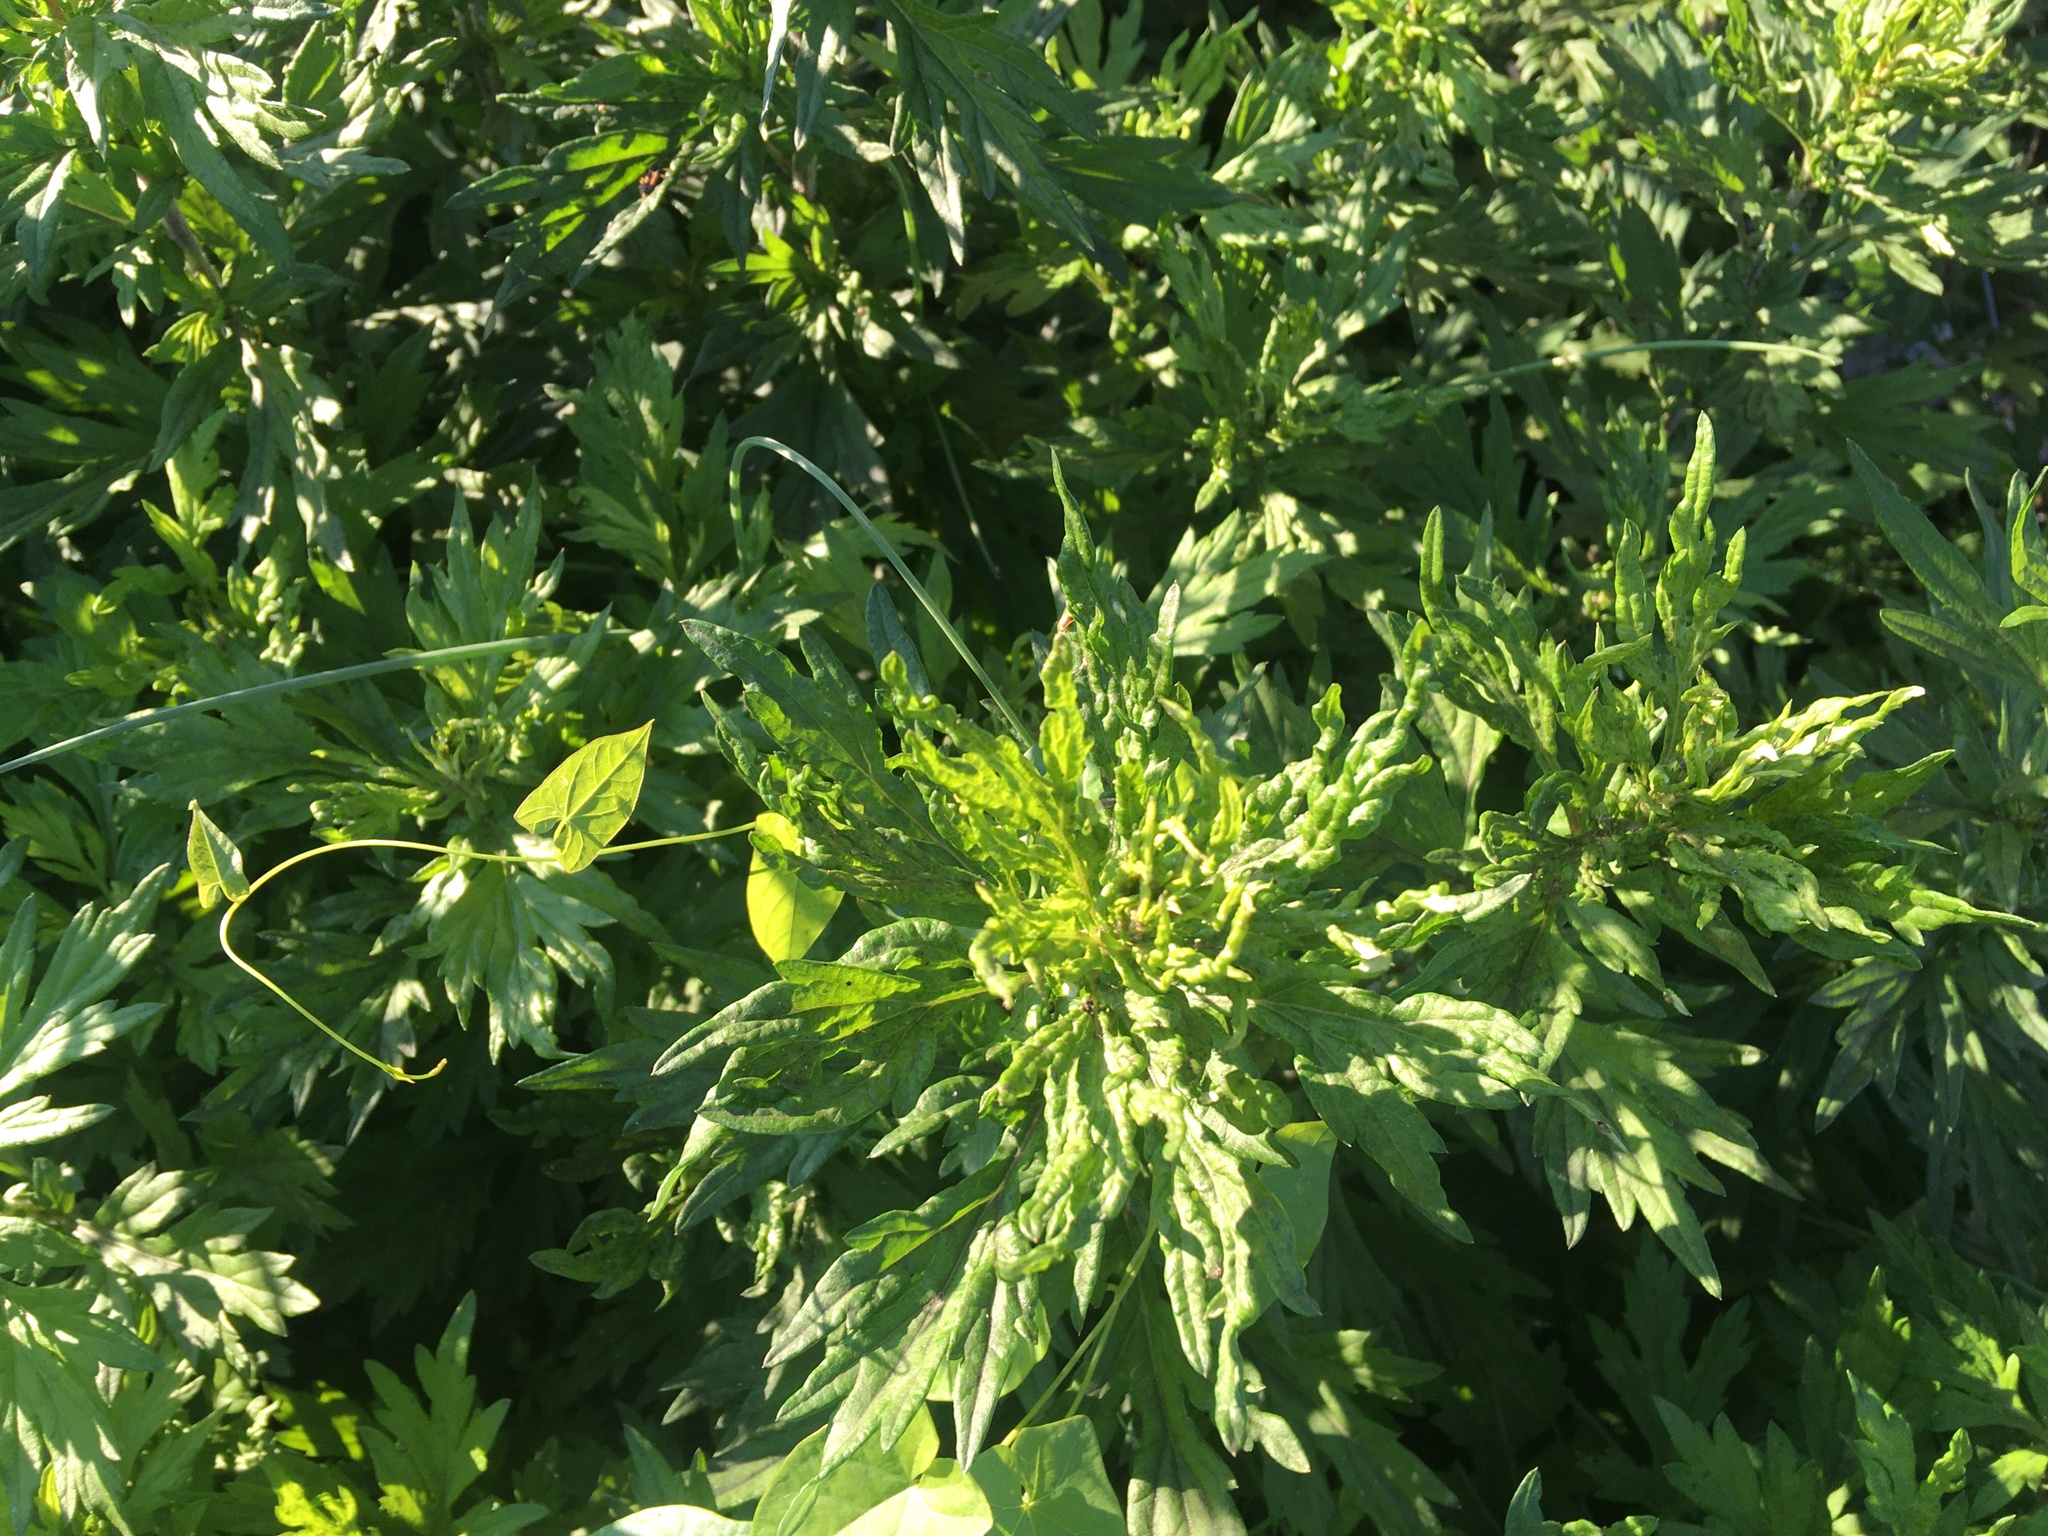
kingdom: Plantae
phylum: Tracheophyta
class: Magnoliopsida
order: Asterales
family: Asteraceae
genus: Artemisia
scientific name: Artemisia vulgaris
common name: Mugwort
